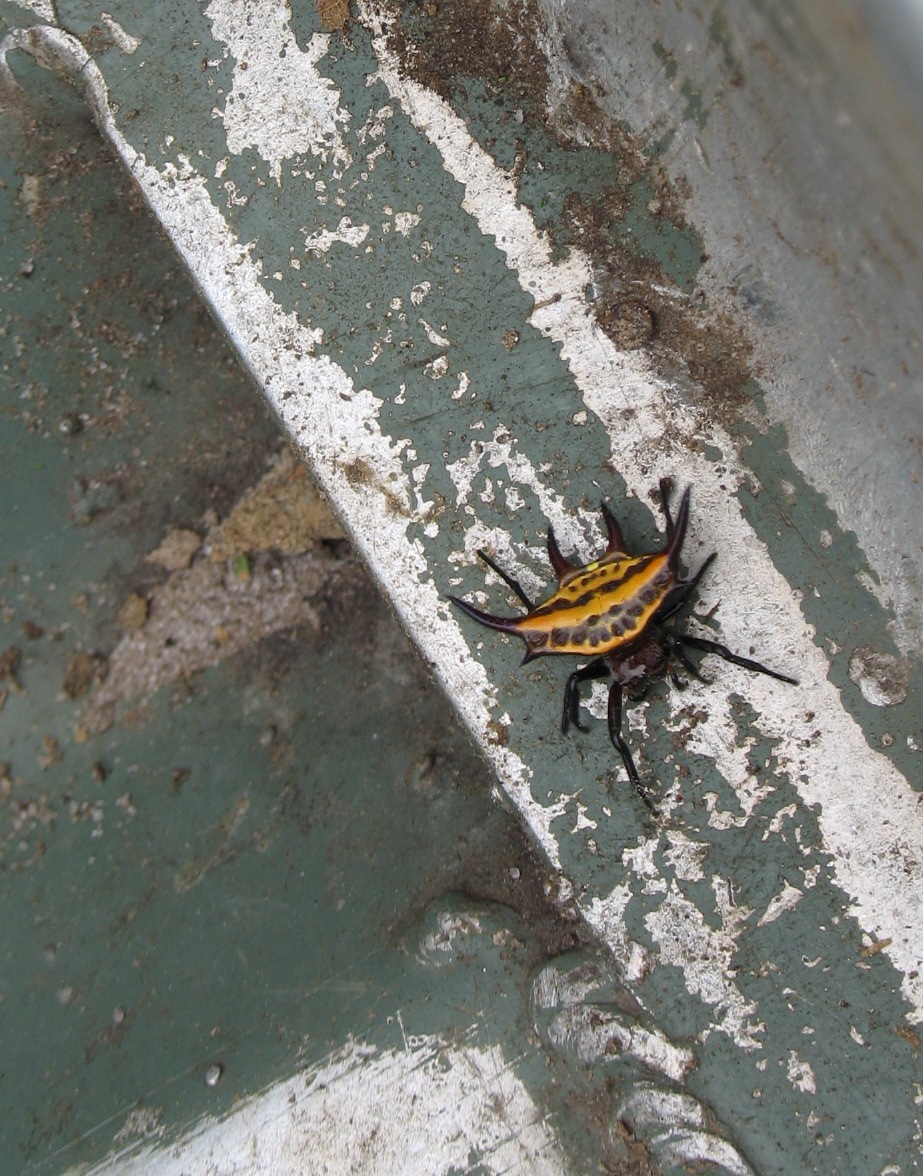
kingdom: Animalia
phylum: Arthropoda
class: Arachnida
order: Araneae
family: Araneidae
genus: Gasteracantha
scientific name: Gasteracantha curvispina
